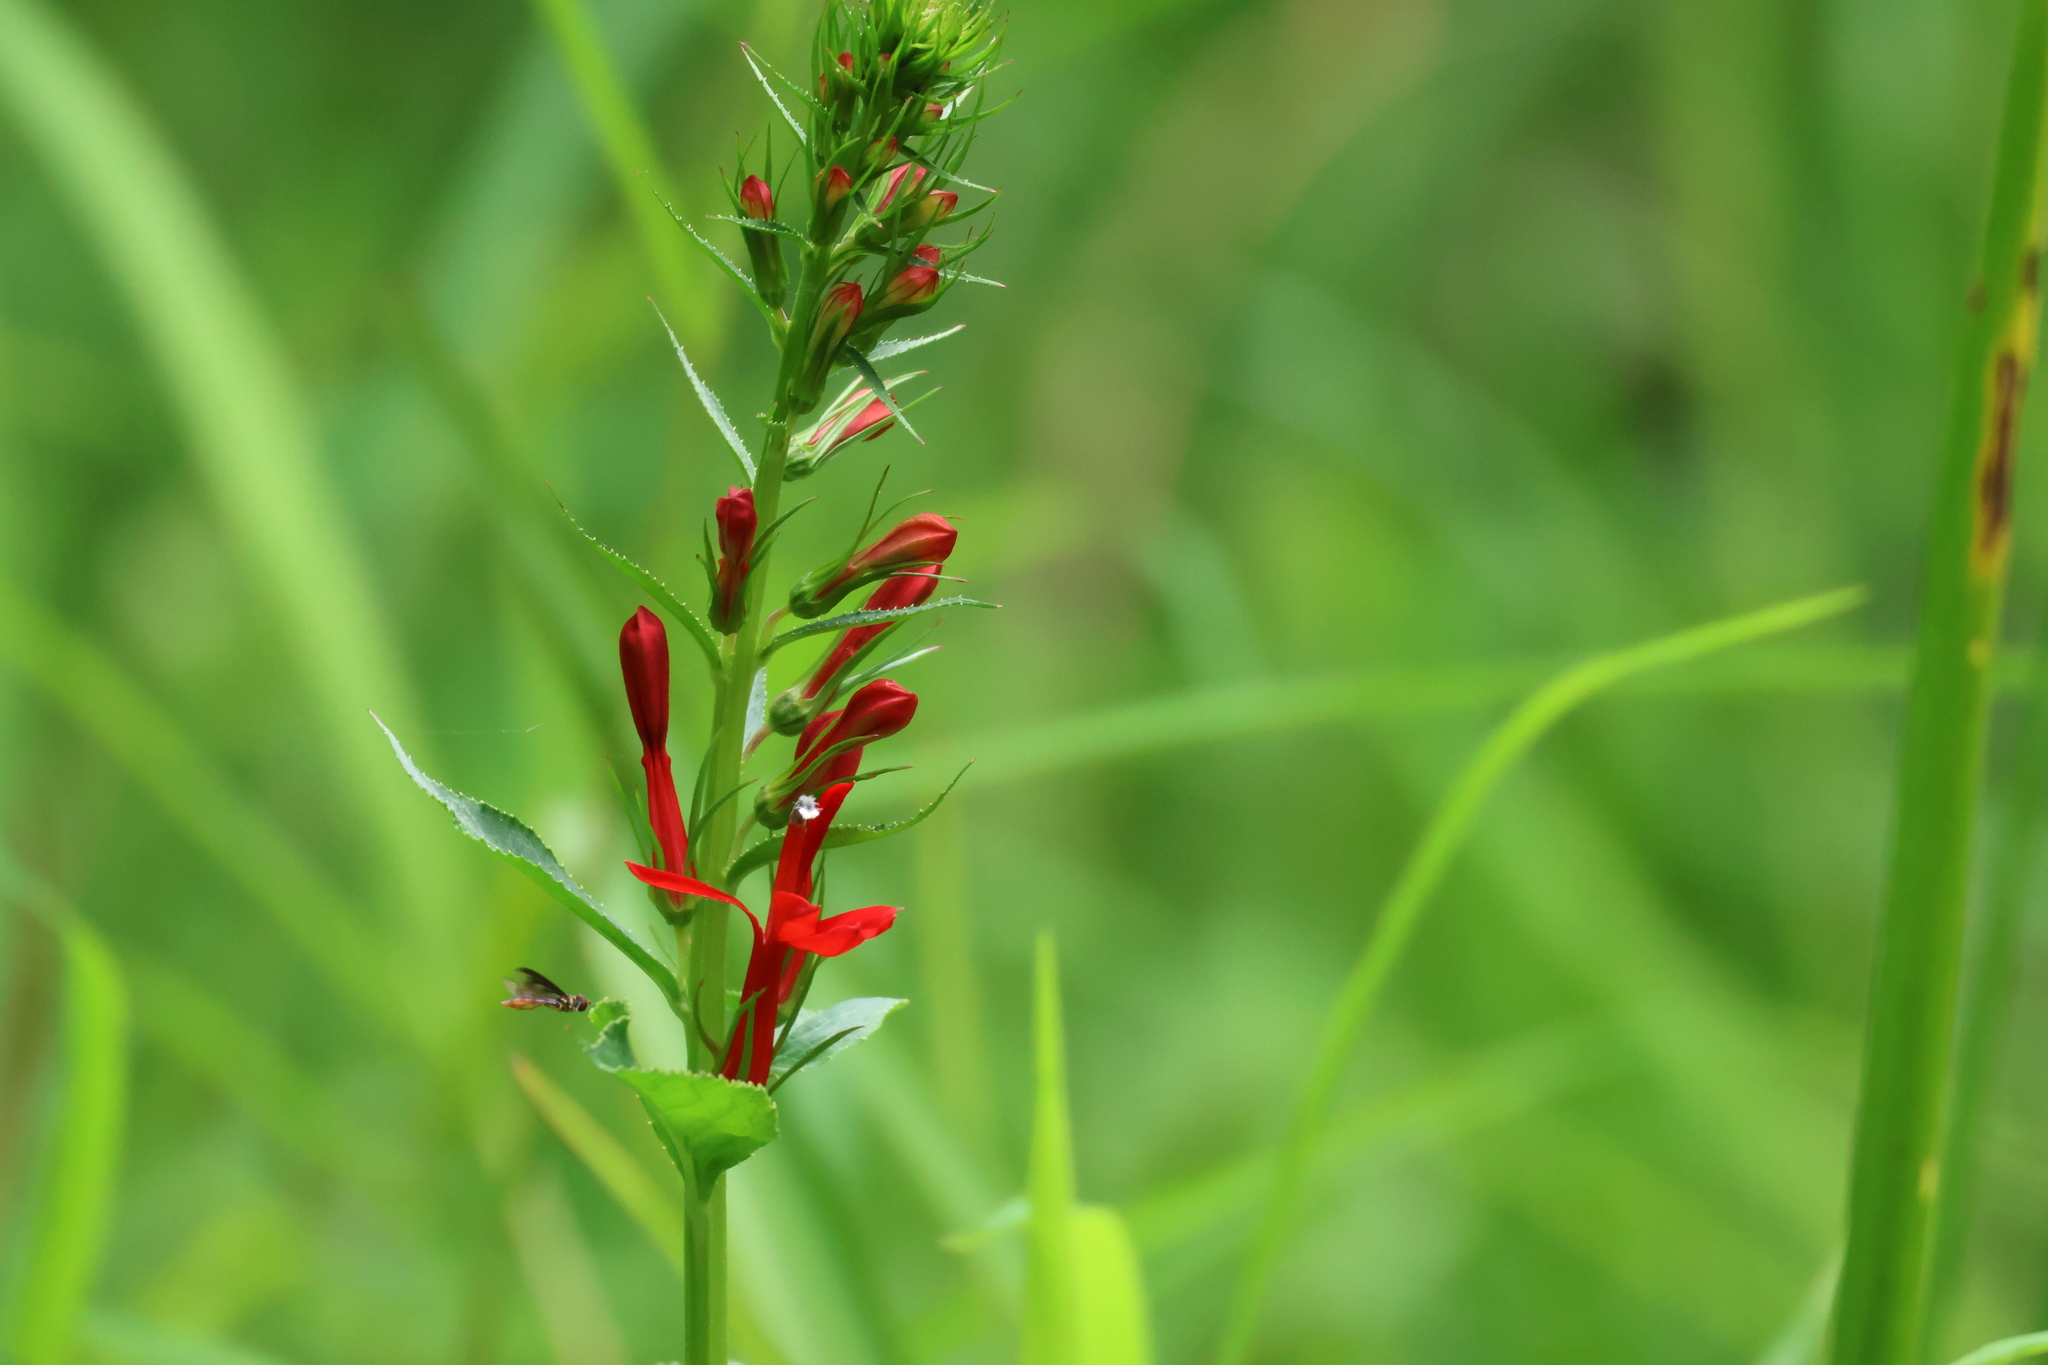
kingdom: Plantae
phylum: Tracheophyta
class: Magnoliopsida
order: Asterales
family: Campanulaceae
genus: Lobelia
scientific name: Lobelia cardinalis
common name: Cardinal flower
